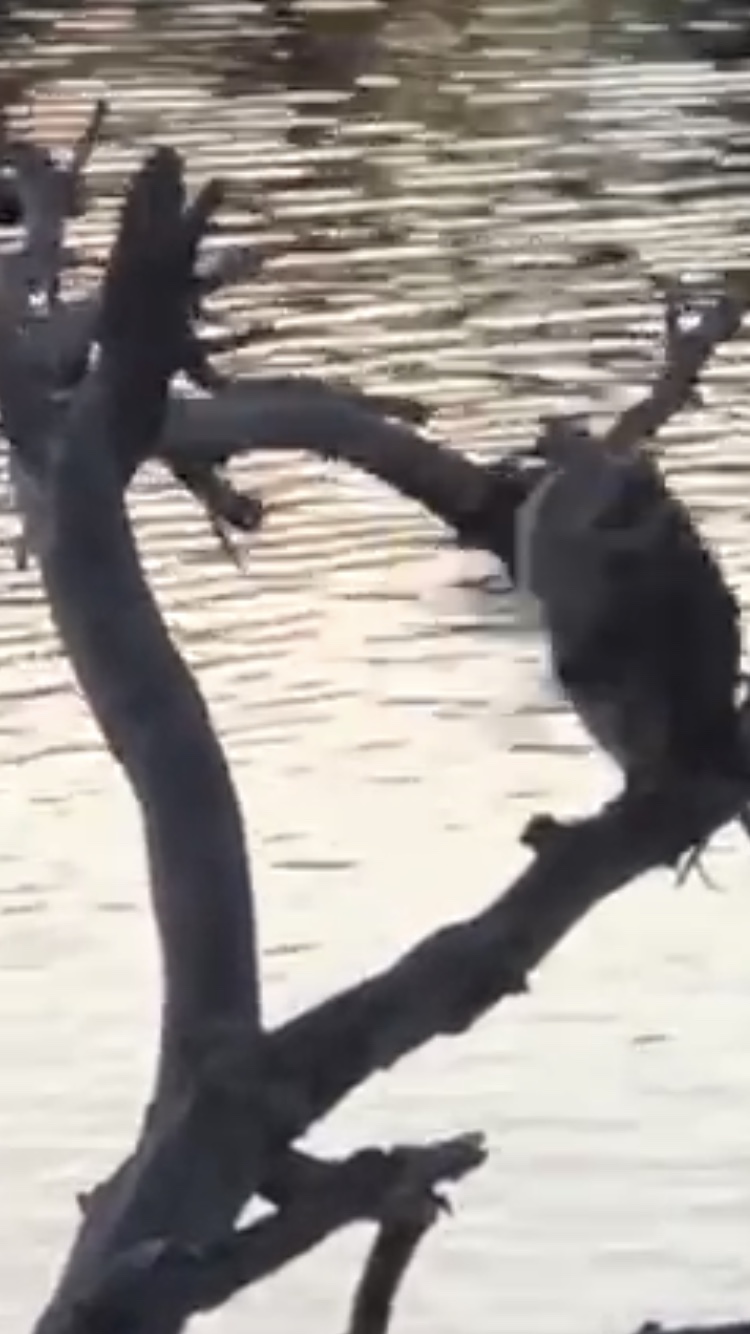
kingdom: Animalia
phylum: Chordata
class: Aves
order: Suliformes
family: Anhingidae
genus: Anhinga
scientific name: Anhinga novaehollandiae
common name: Australasian darter
